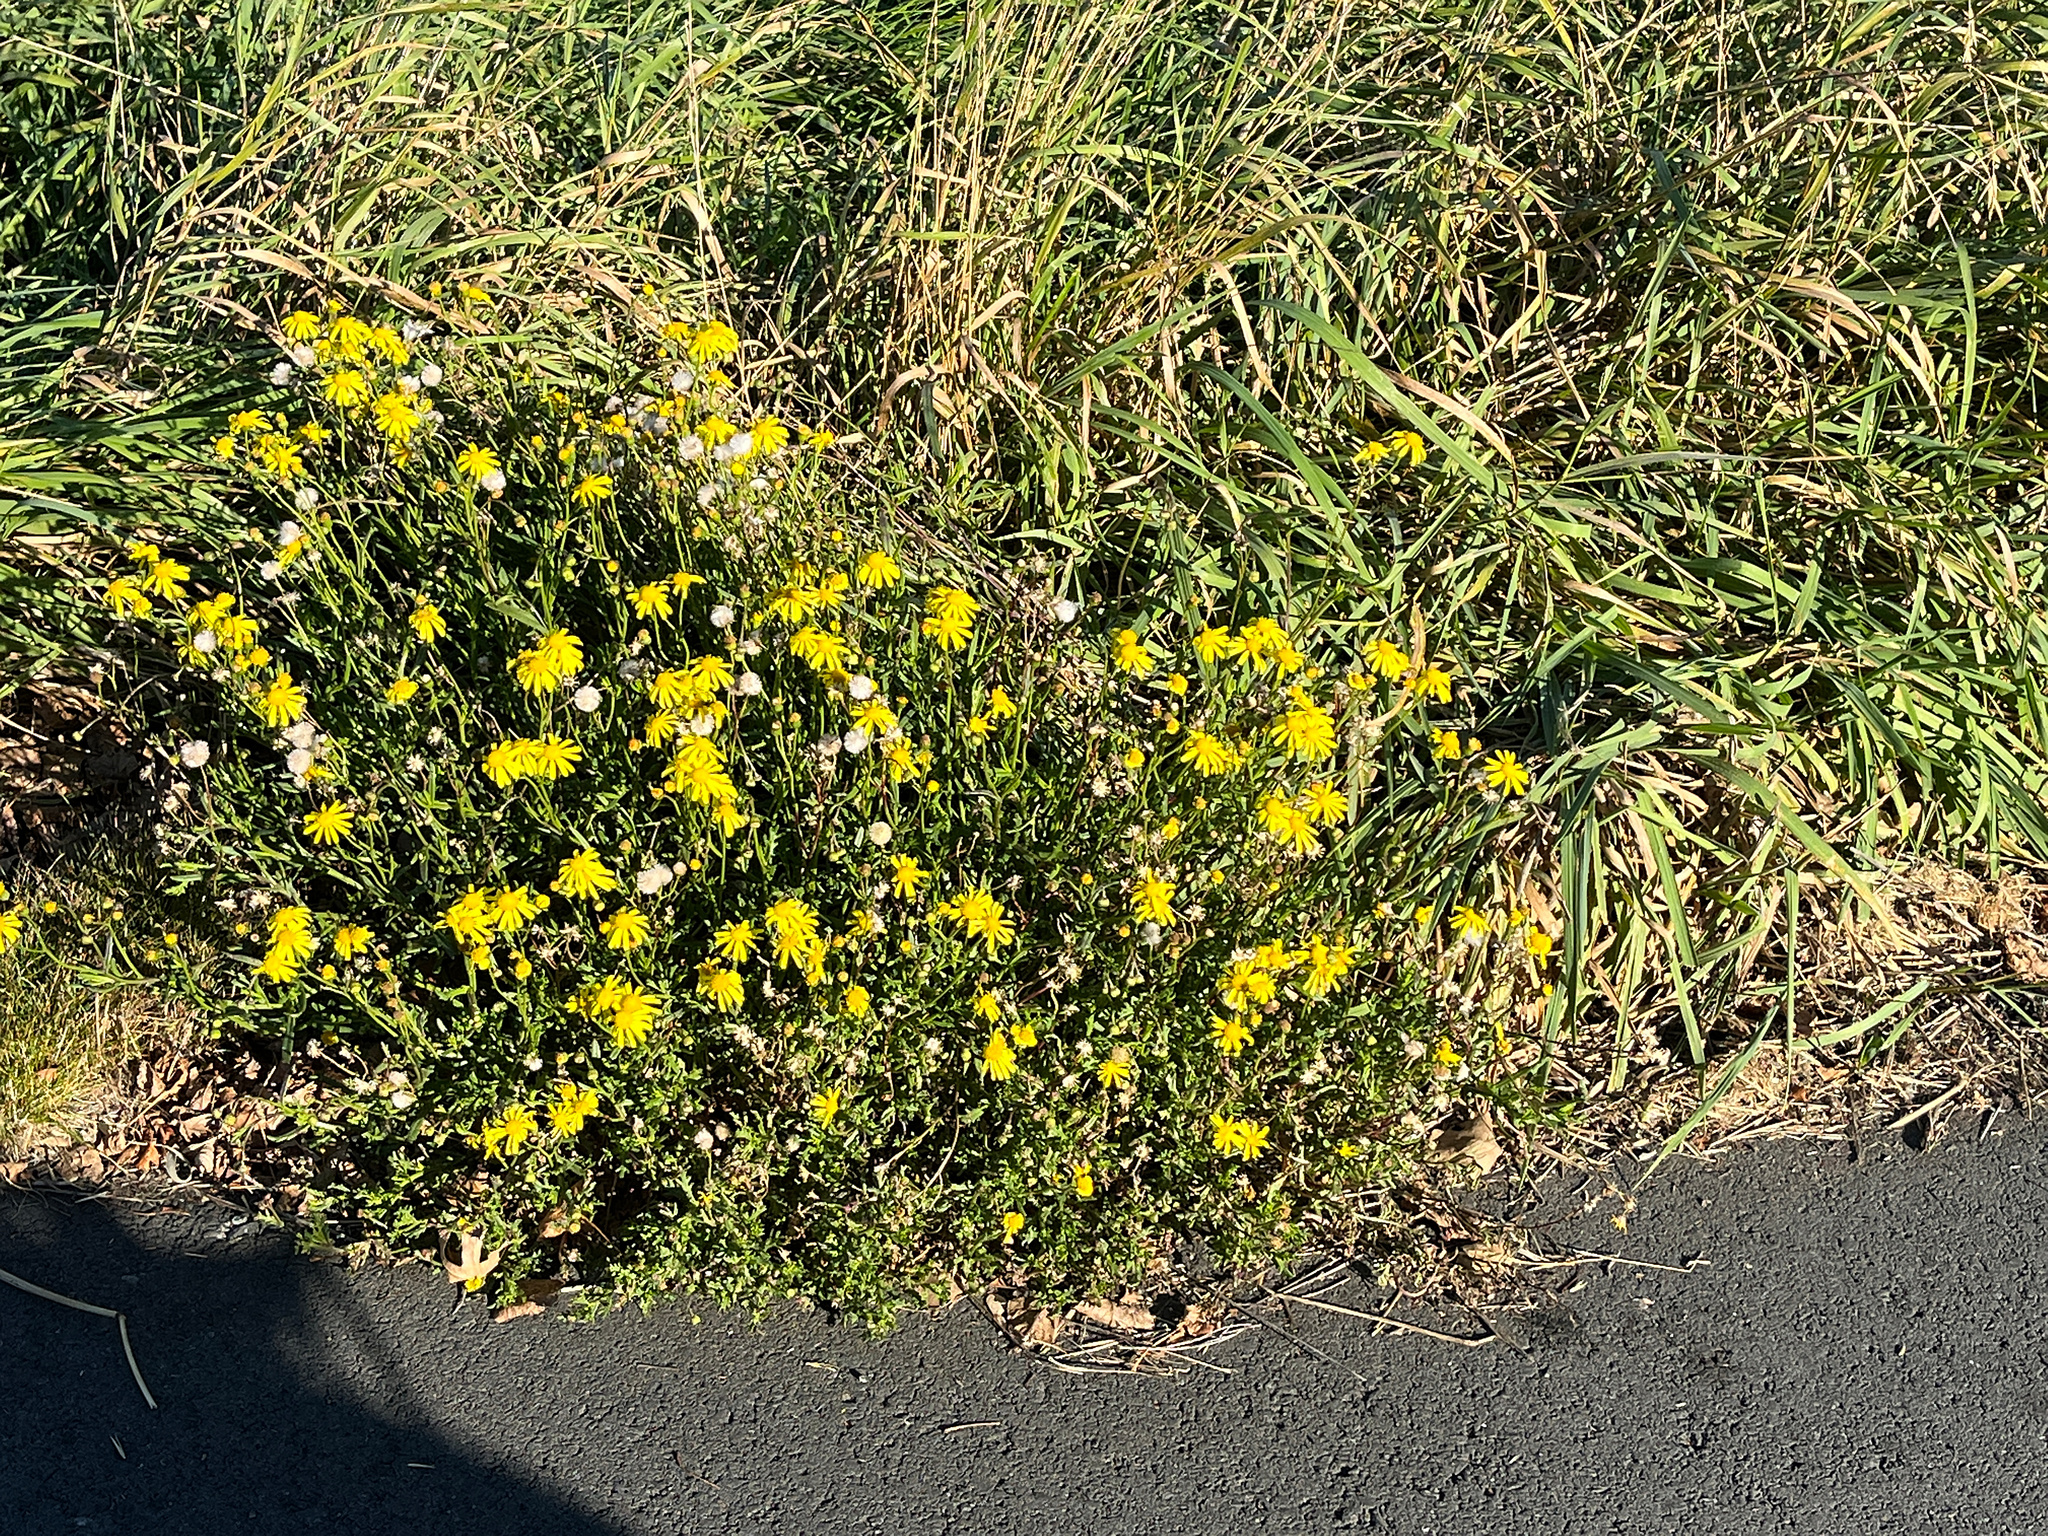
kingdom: Plantae
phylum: Tracheophyta
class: Magnoliopsida
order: Asterales
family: Asteraceae
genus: Senecio
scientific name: Senecio skirrhodon
